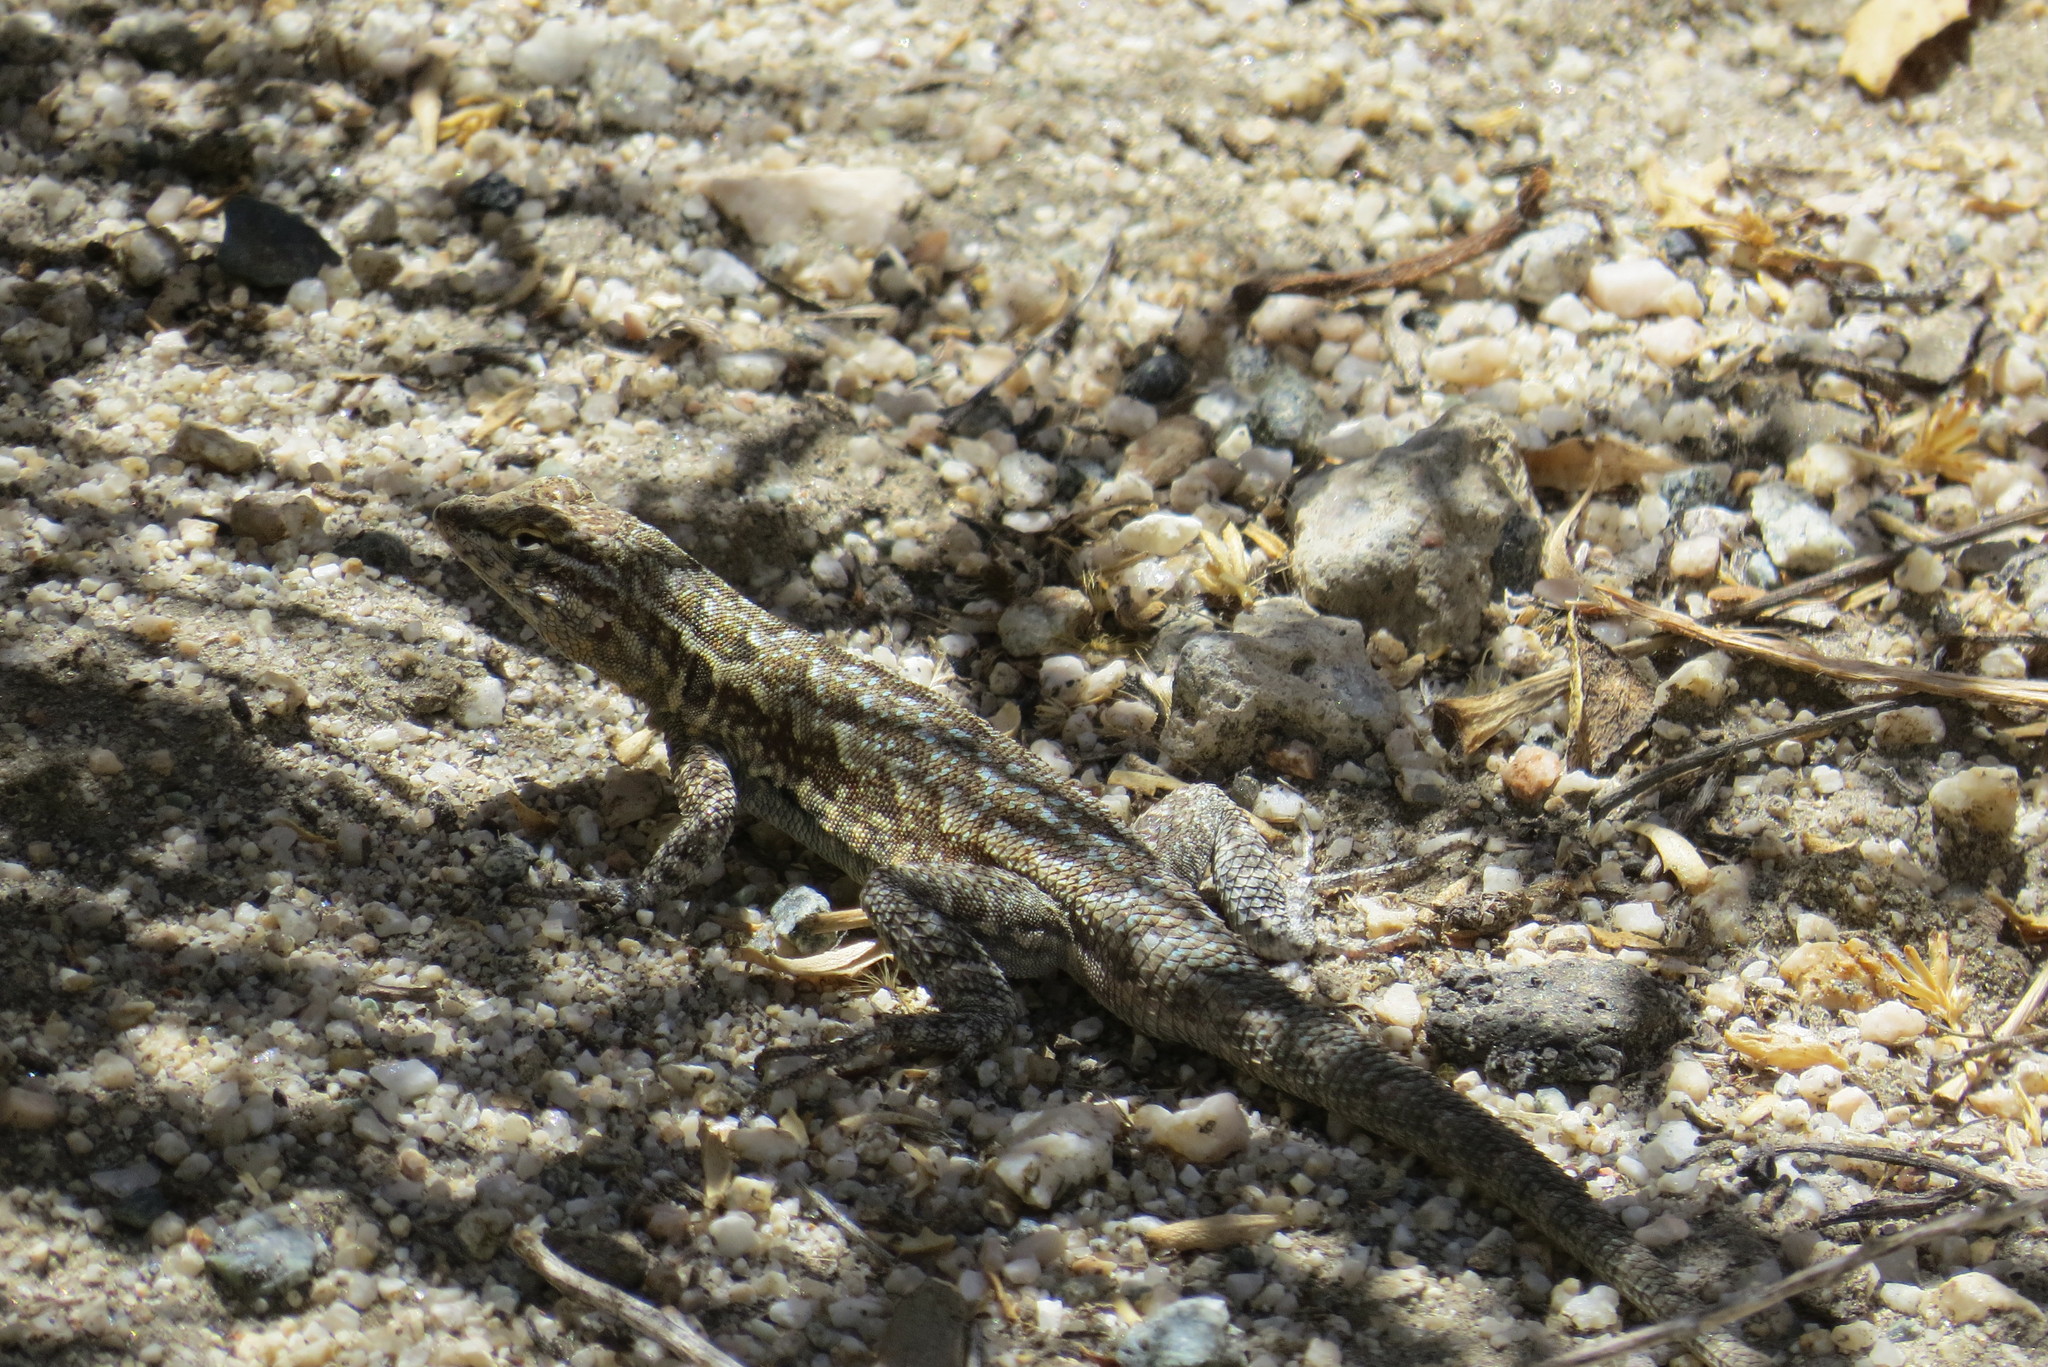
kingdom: Animalia
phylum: Chordata
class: Squamata
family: Phrynosomatidae
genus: Uta
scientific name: Uta stansburiana
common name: Side-blotched lizard
